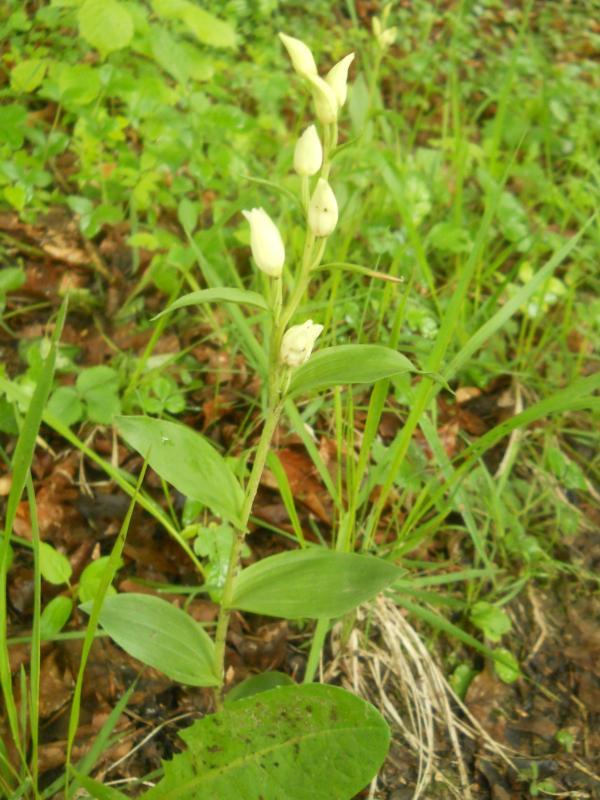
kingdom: Plantae
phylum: Tracheophyta
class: Liliopsida
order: Asparagales
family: Orchidaceae
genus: Cephalanthera
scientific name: Cephalanthera damasonium
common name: White helleborine
